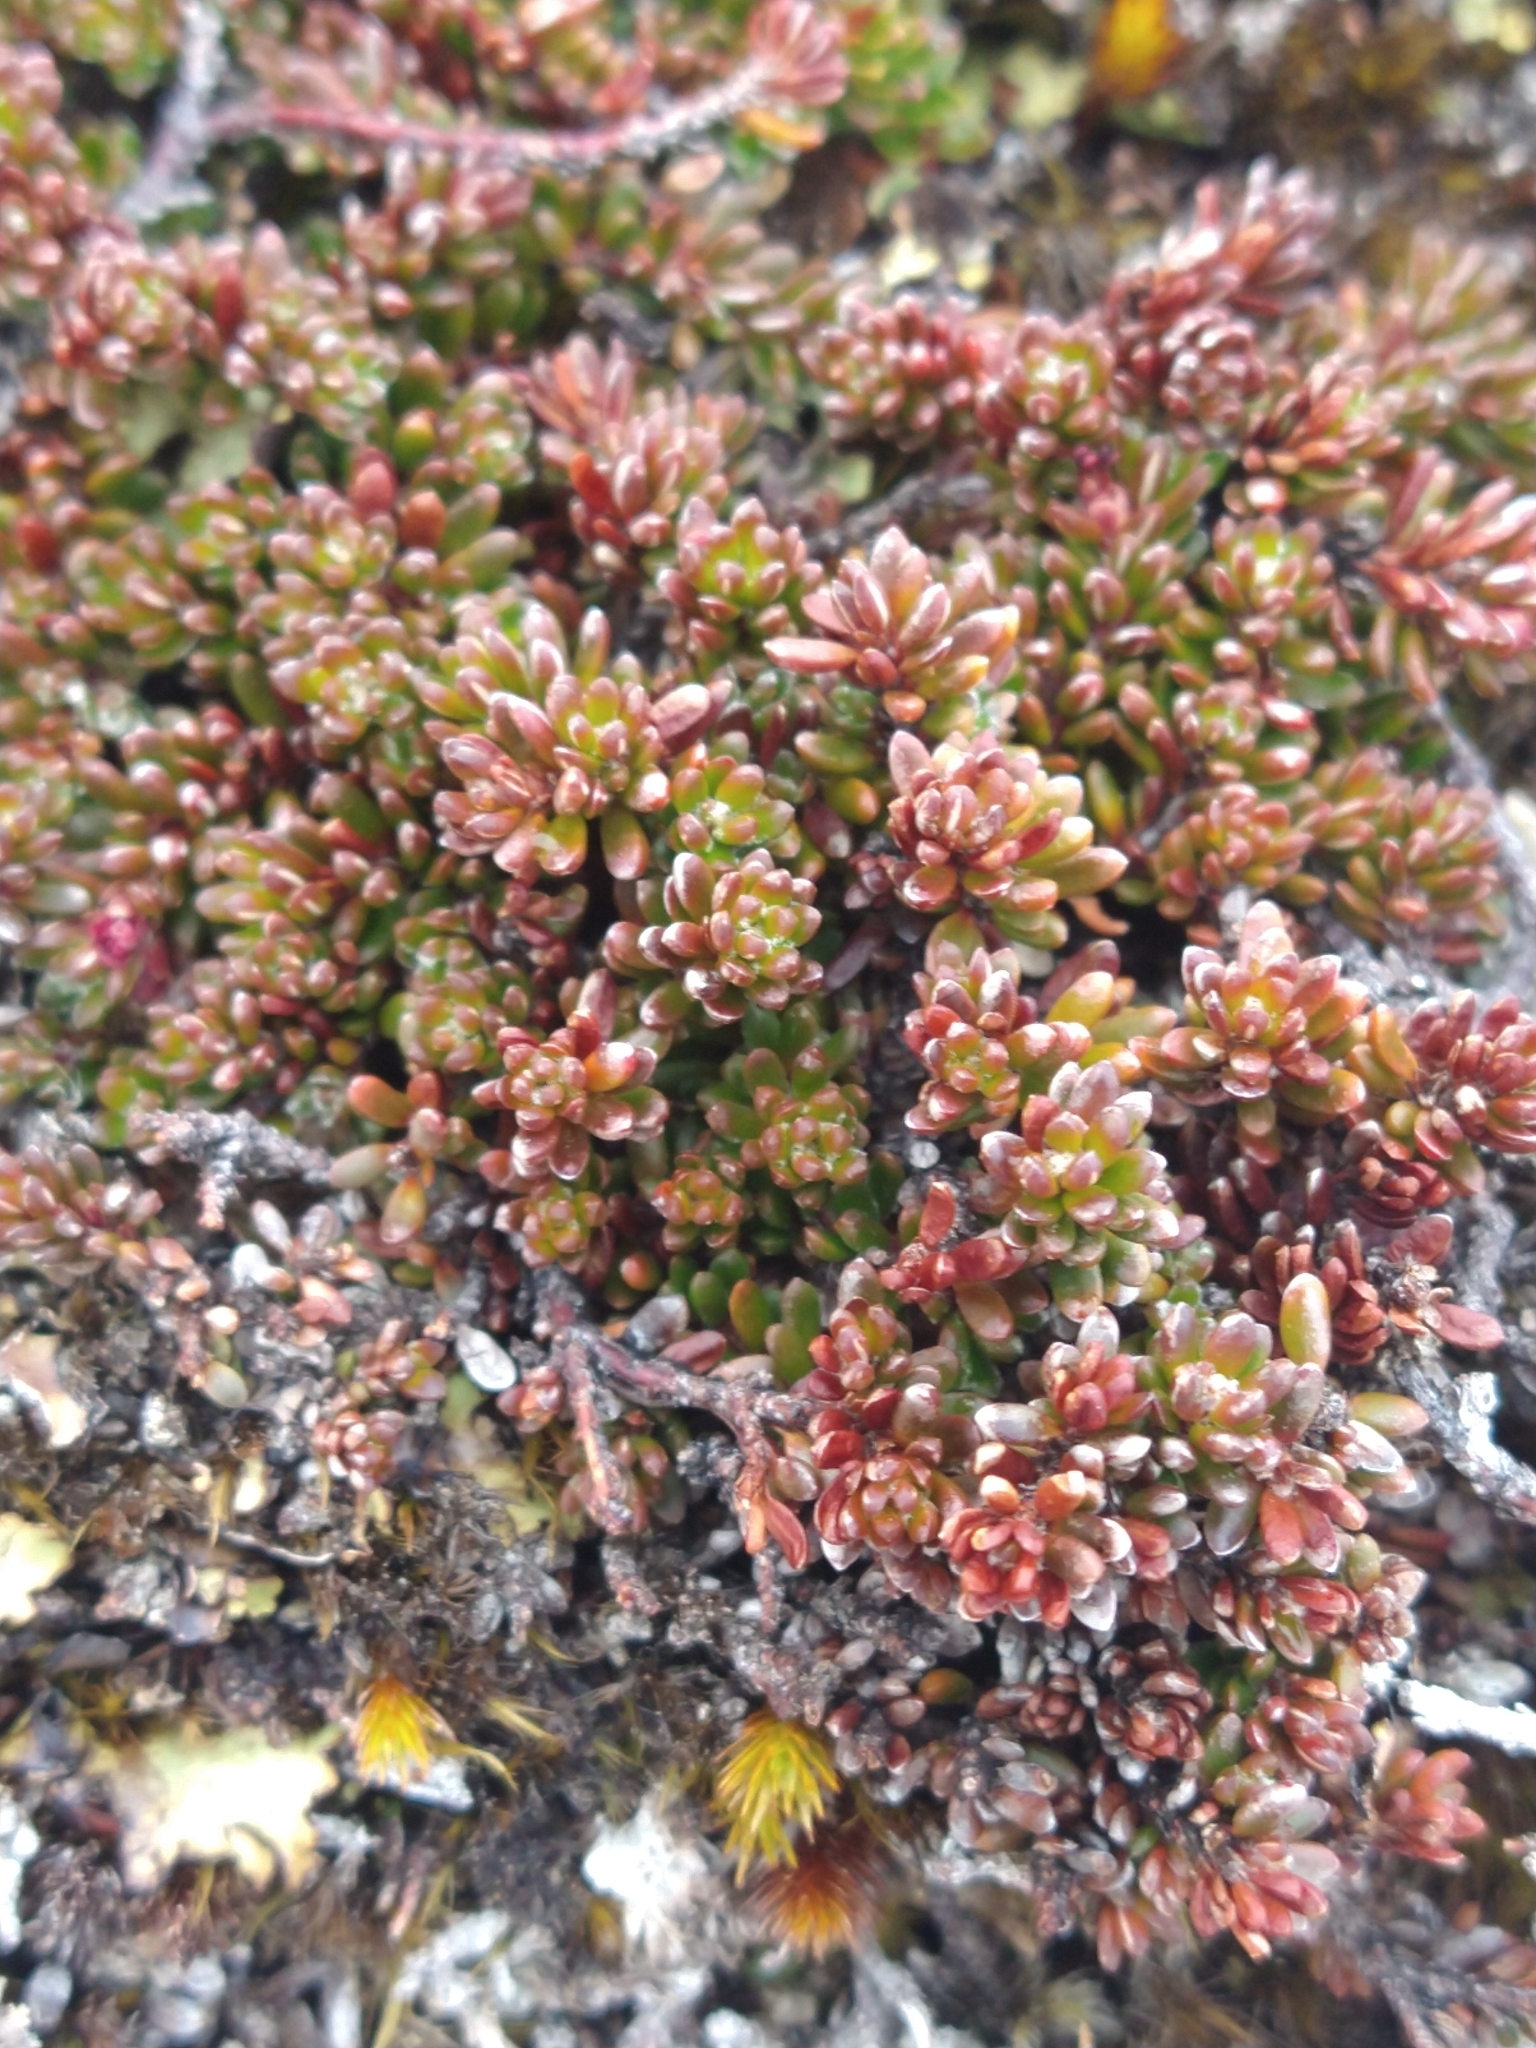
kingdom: Plantae
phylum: Tracheophyta
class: Magnoliopsida
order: Ericales
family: Ericaceae
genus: Empetrum
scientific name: Empetrum rubrum
